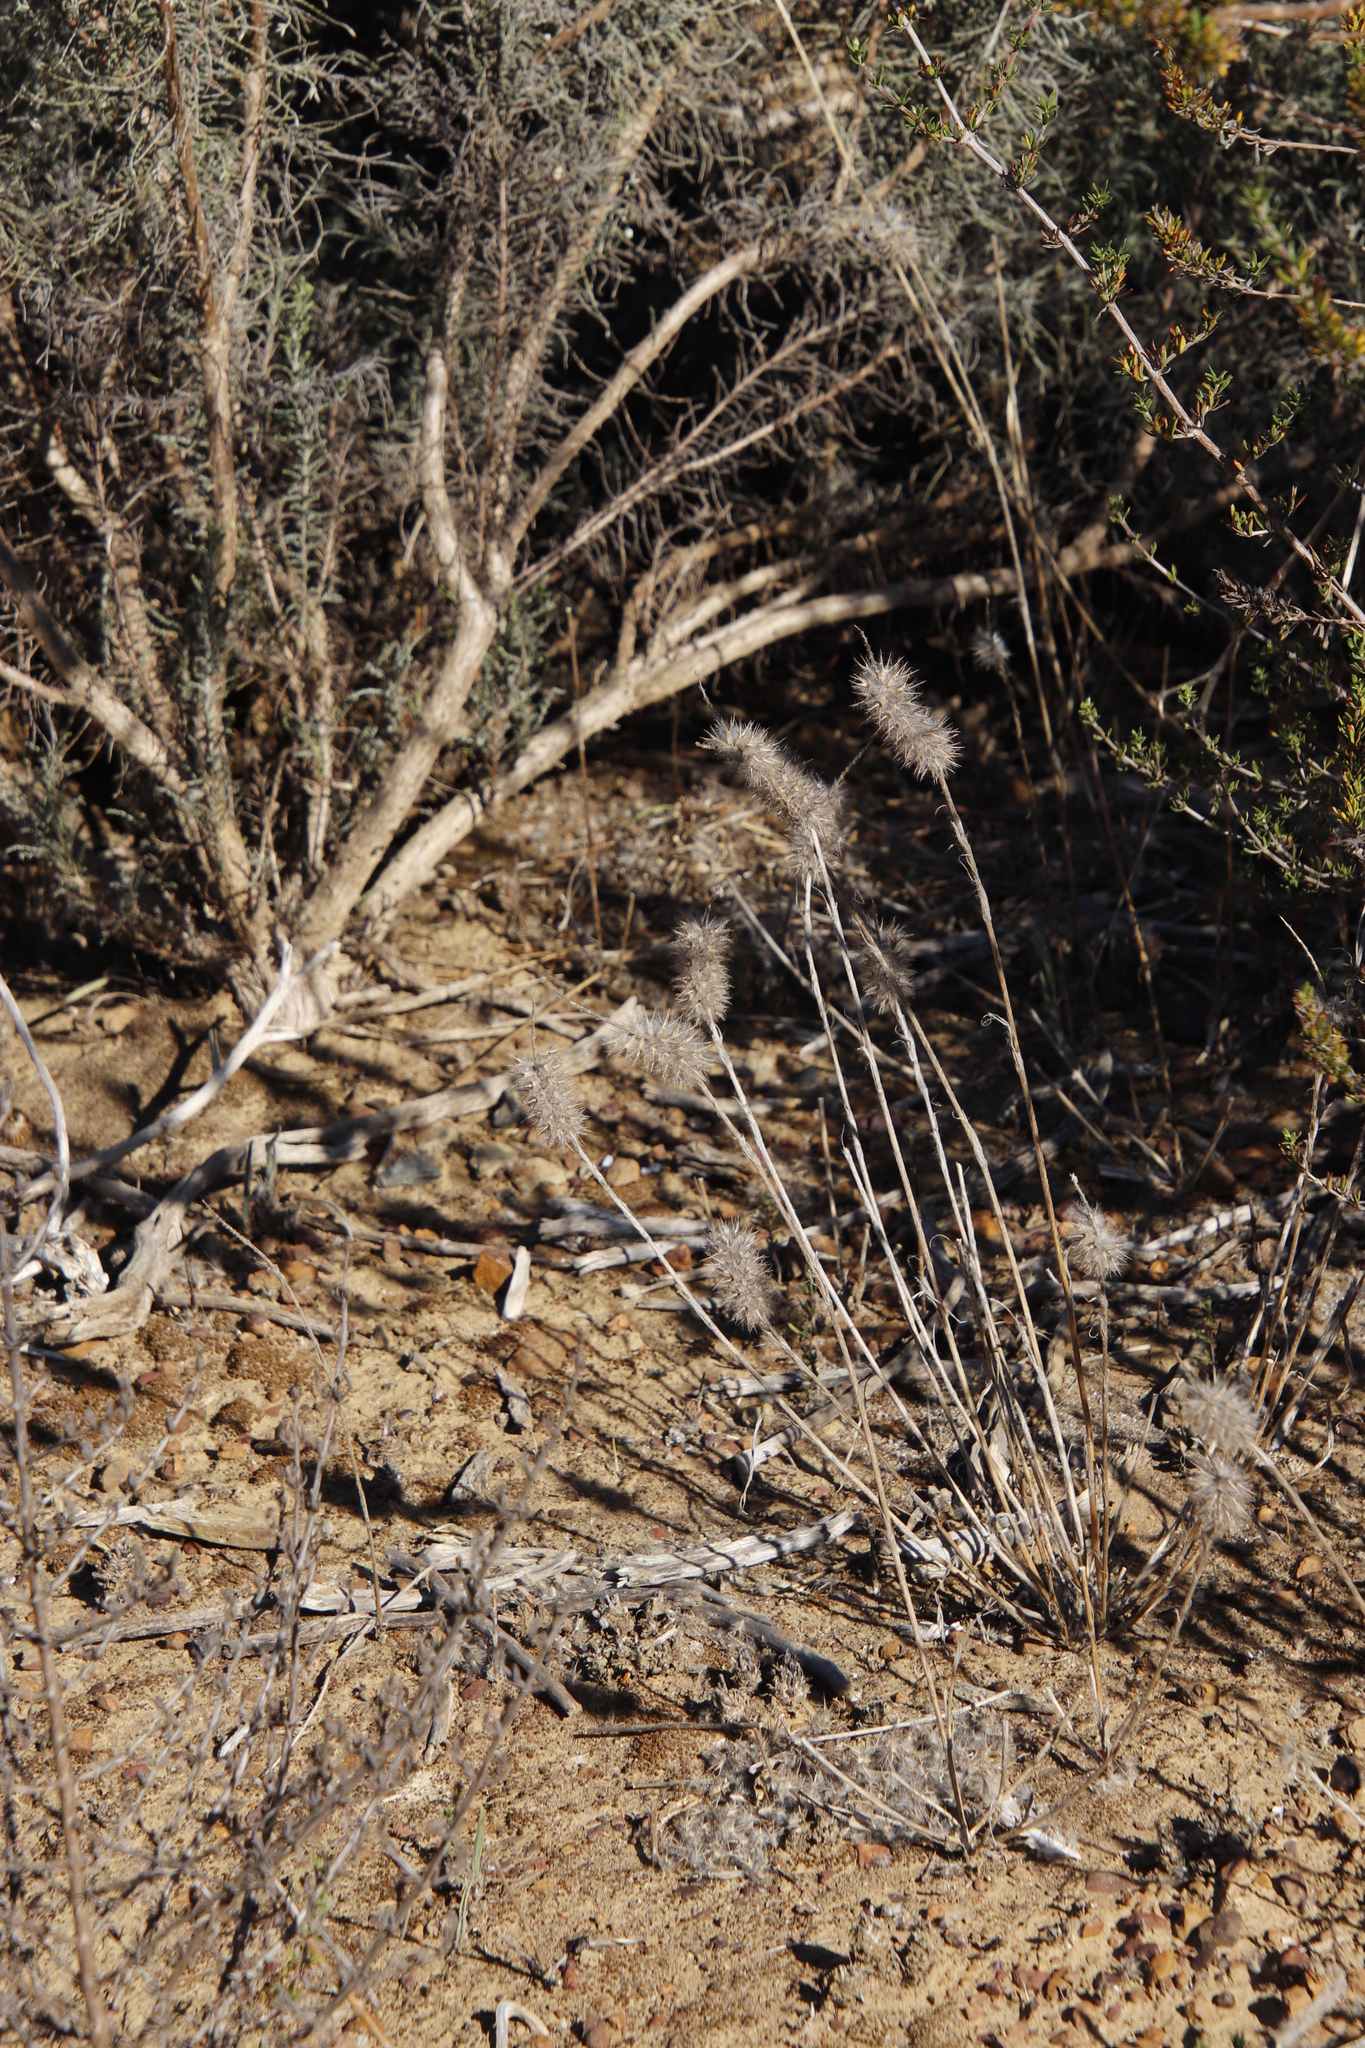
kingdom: Plantae
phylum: Tracheophyta
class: Magnoliopsida
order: Fabales
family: Fabaceae
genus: Trifolium
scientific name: Trifolium angustifolium
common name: Narrow clover
